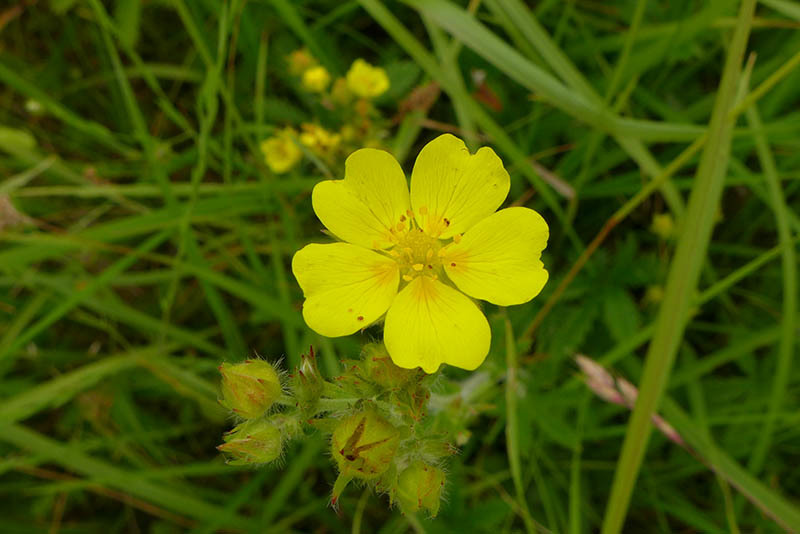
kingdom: Plantae
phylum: Tracheophyta
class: Magnoliopsida
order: Rosales
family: Rosaceae
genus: Potentilla
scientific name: Potentilla gracilis
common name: Graceful cinquefoil
